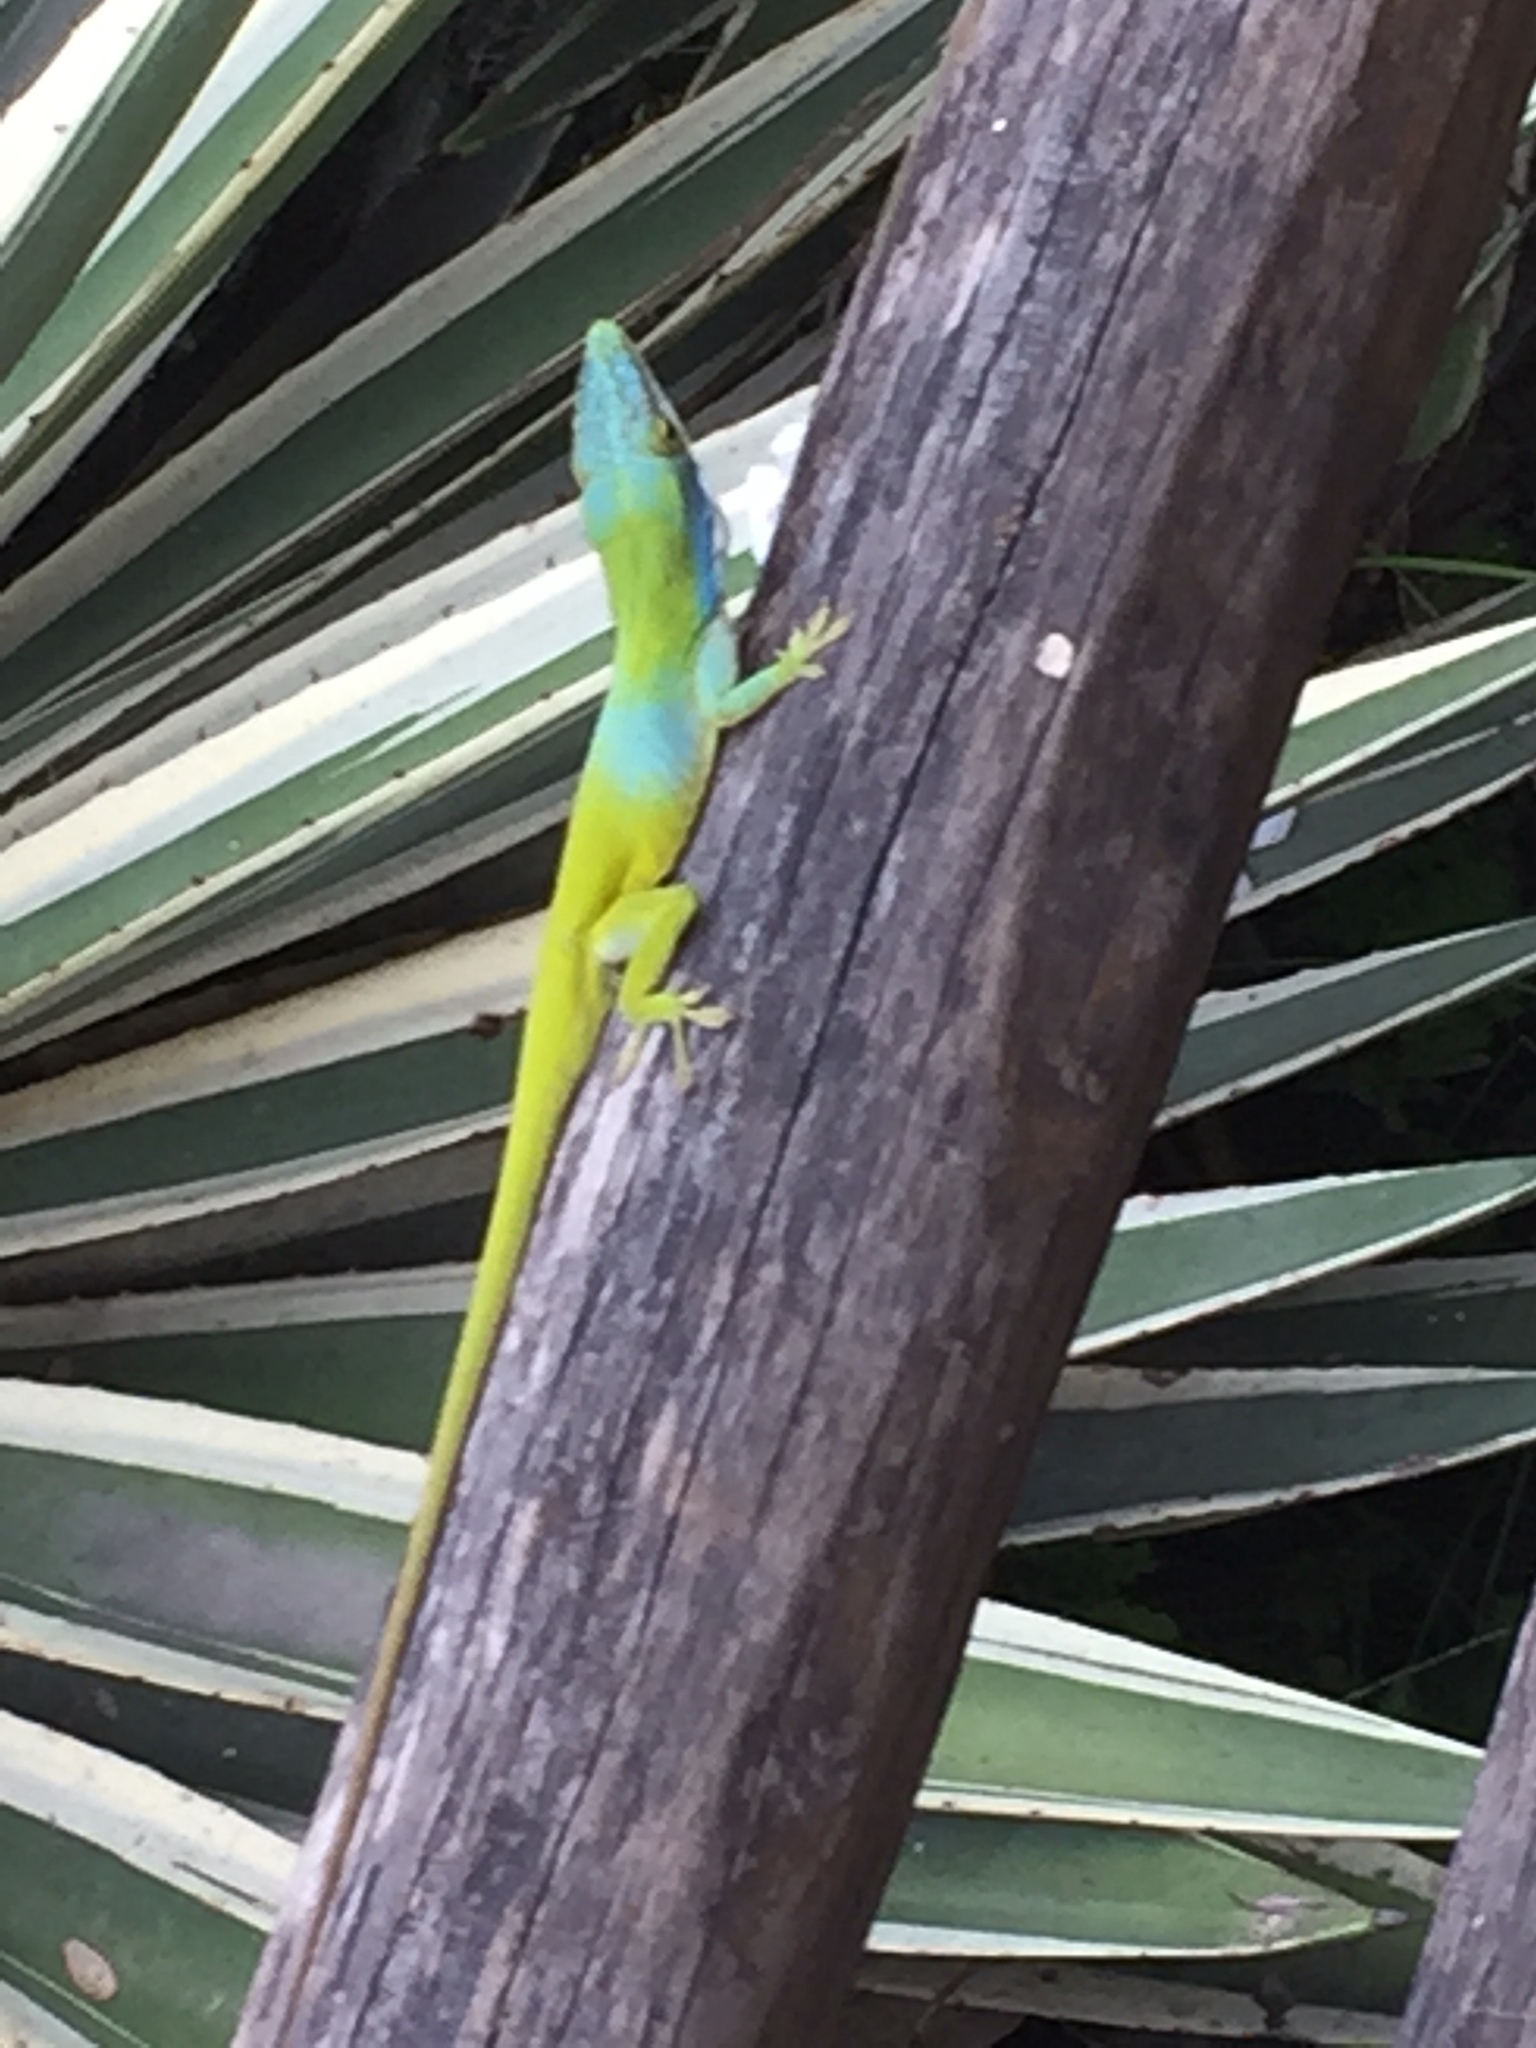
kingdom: Animalia
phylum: Chordata
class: Squamata
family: Dactyloidae
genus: Anolis
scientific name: Anolis allisoni
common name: Allison's anole
